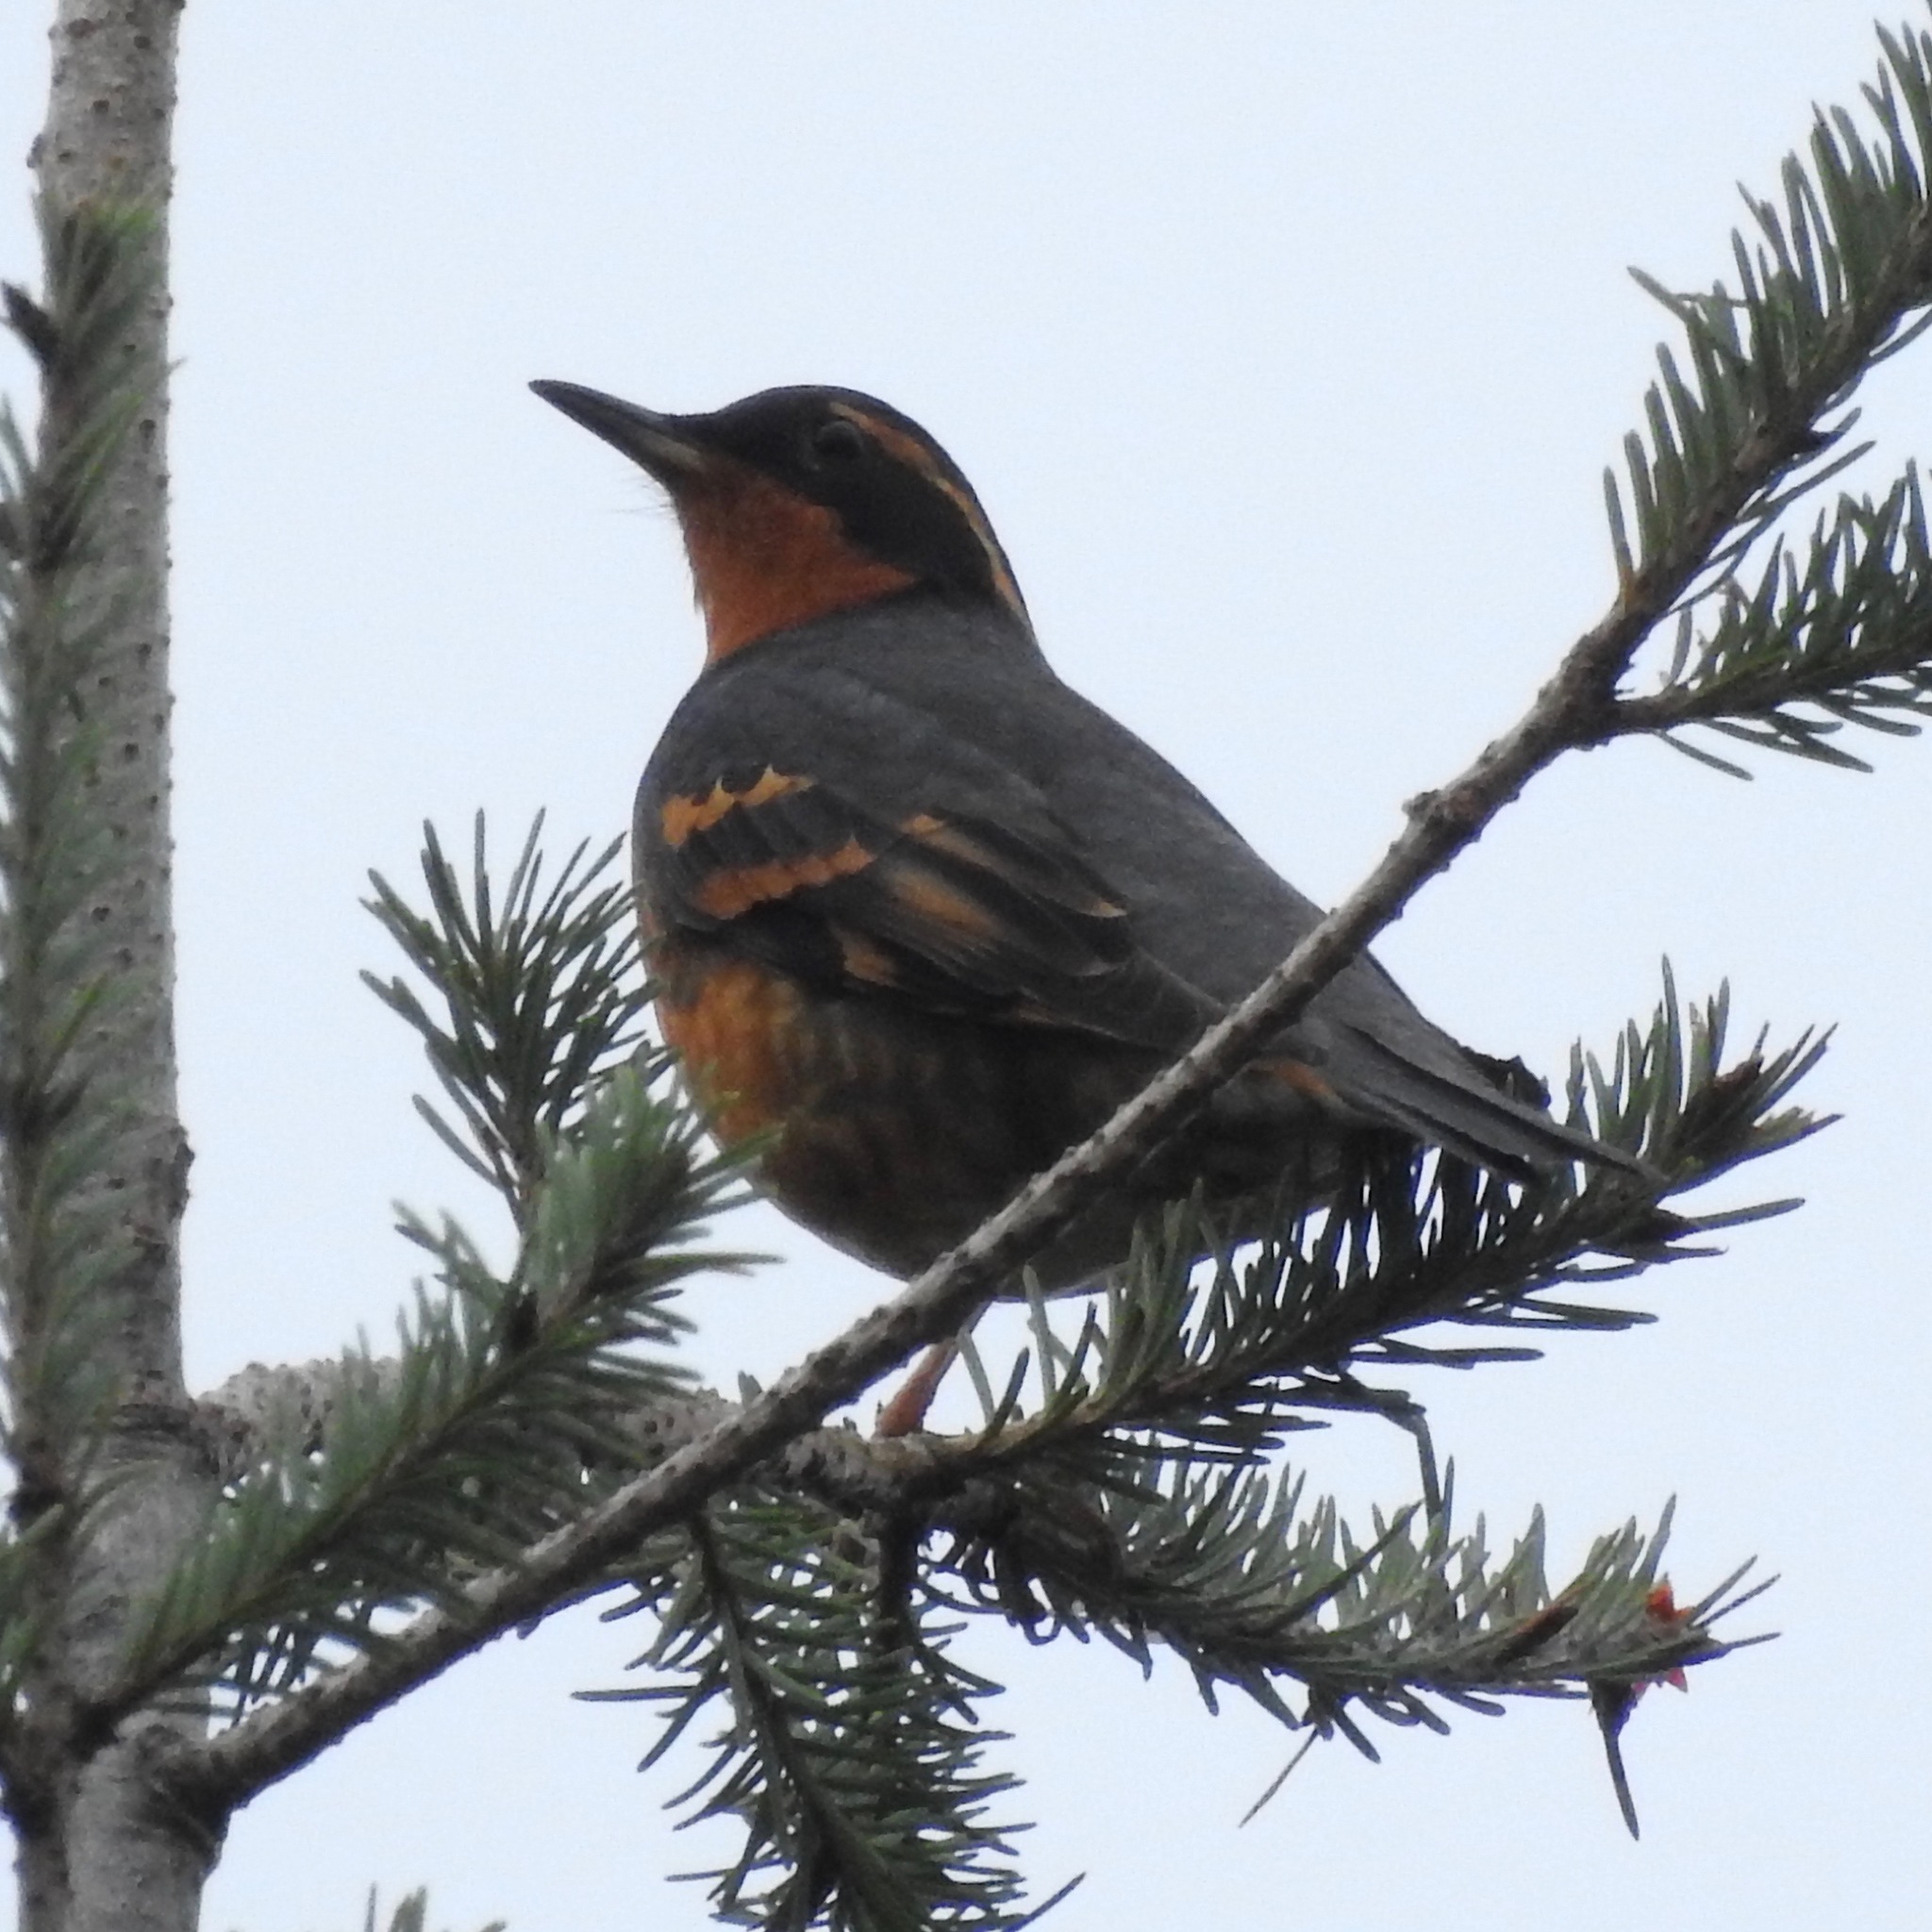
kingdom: Animalia
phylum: Chordata
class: Aves
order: Passeriformes
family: Turdidae
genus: Ixoreus
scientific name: Ixoreus naevius
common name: Varied thrush
